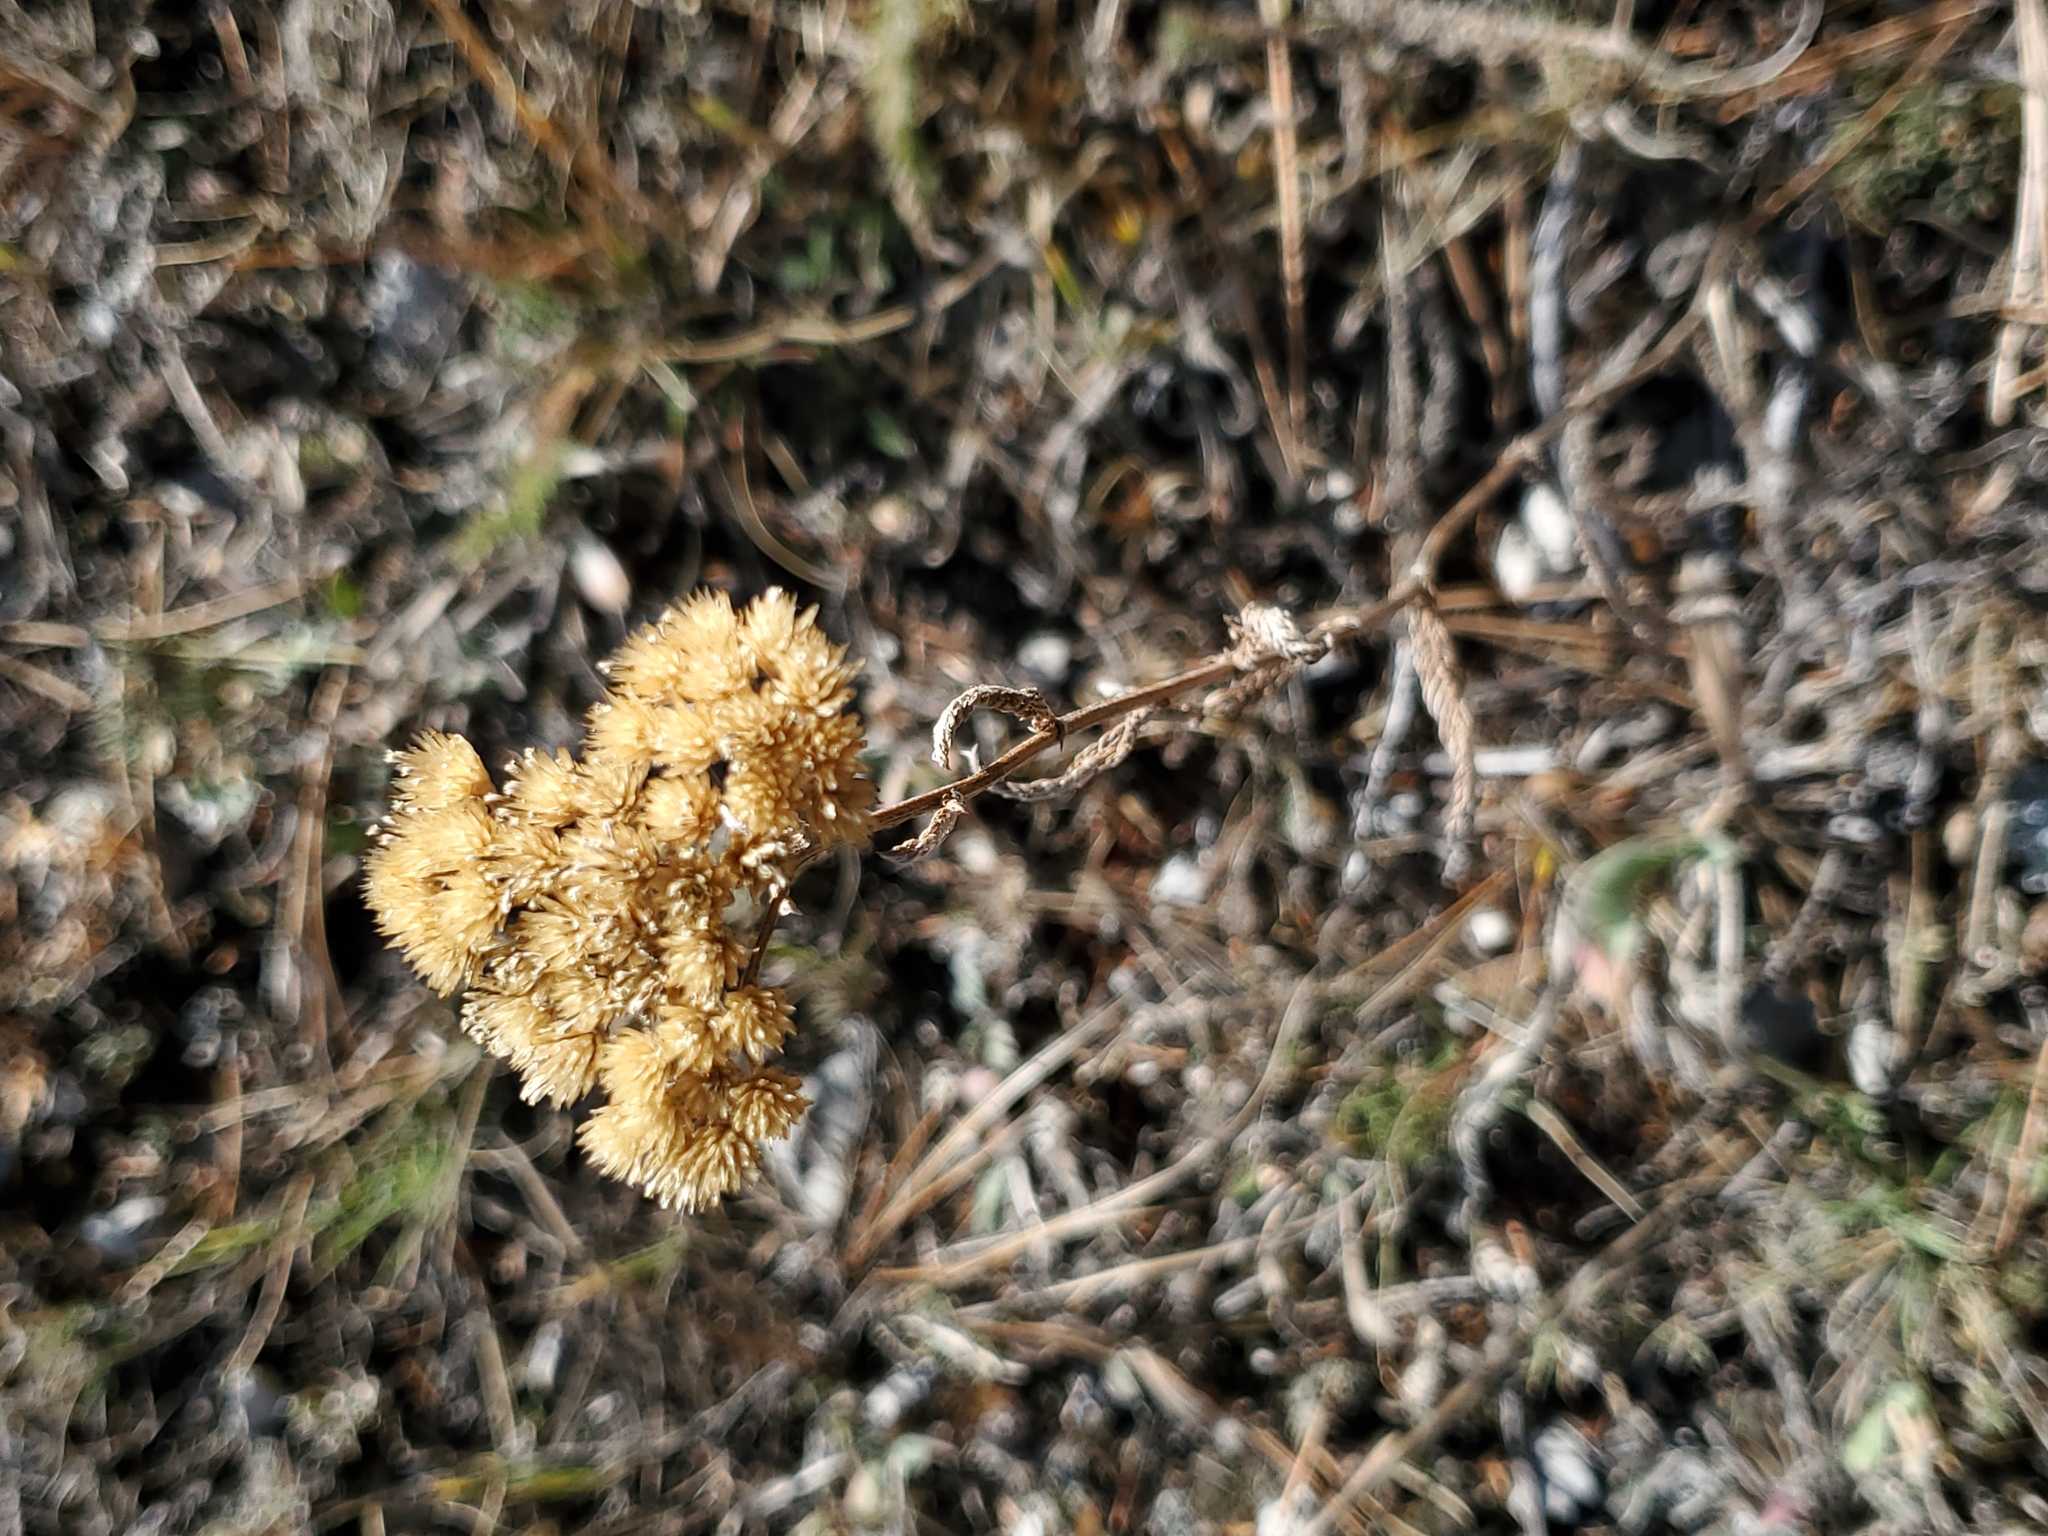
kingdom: Plantae
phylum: Tracheophyta
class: Magnoliopsida
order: Asterales
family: Asteraceae
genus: Achillea
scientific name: Achillea millefolium
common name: Yarrow
